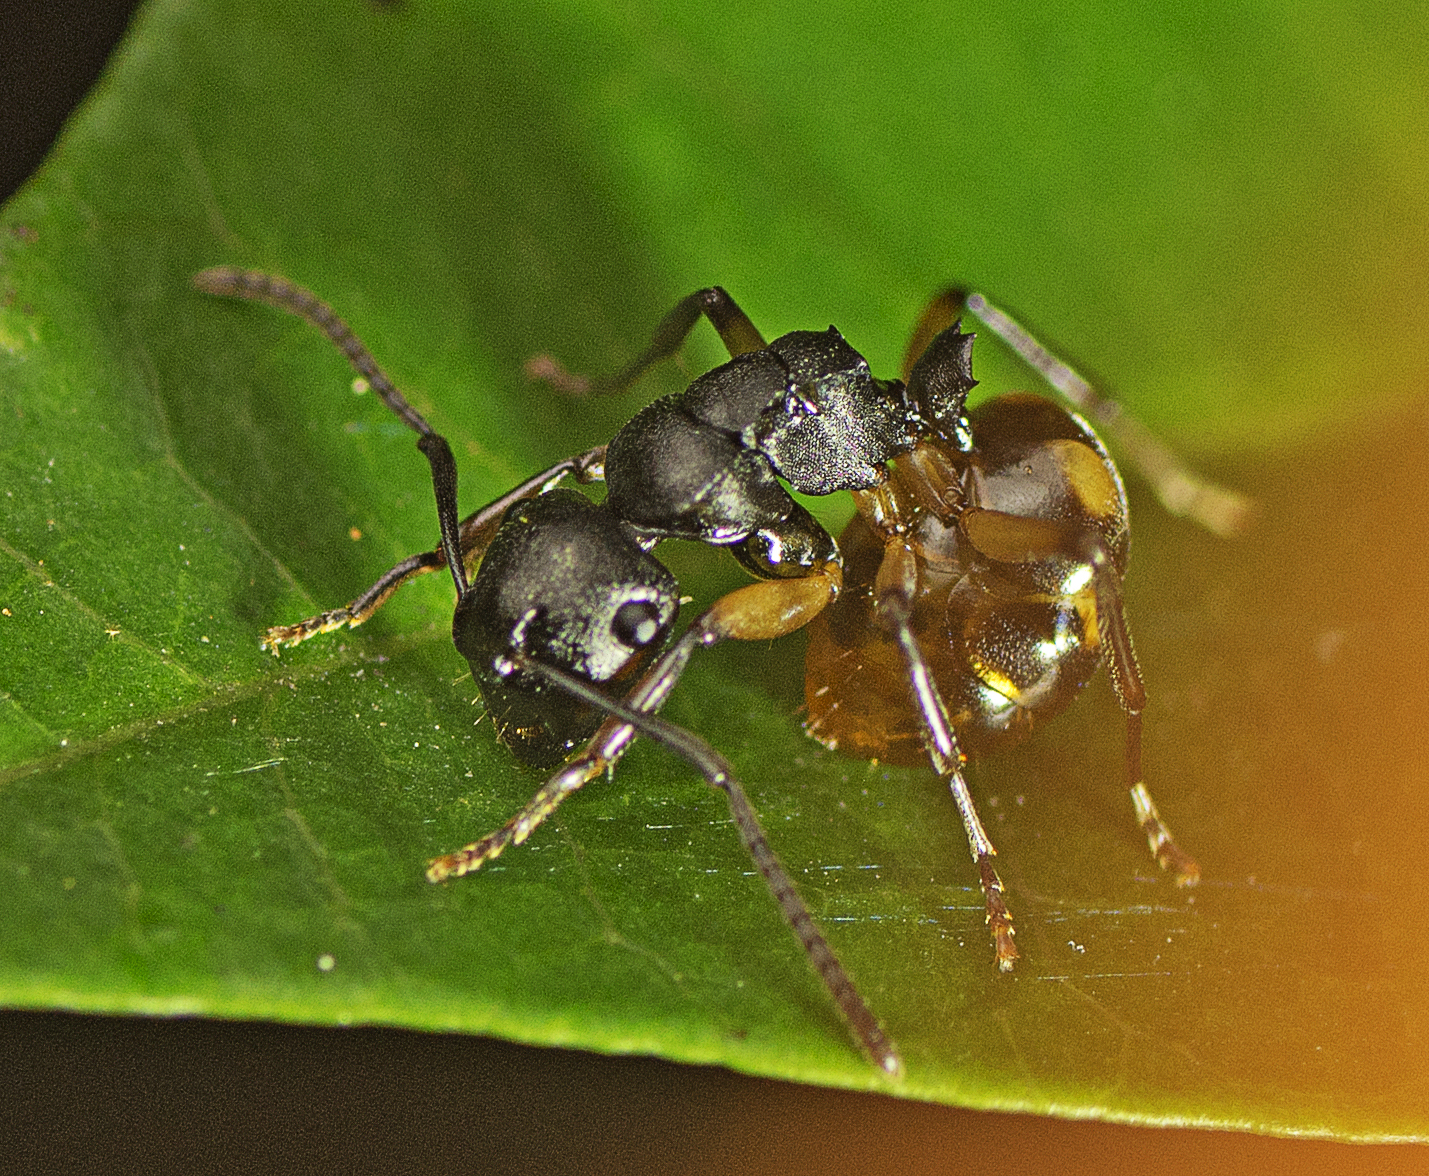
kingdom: Animalia
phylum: Arthropoda
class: Insecta
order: Hymenoptera
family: Formicidae
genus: Polyrhachis
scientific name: Polyrhachis maculata
